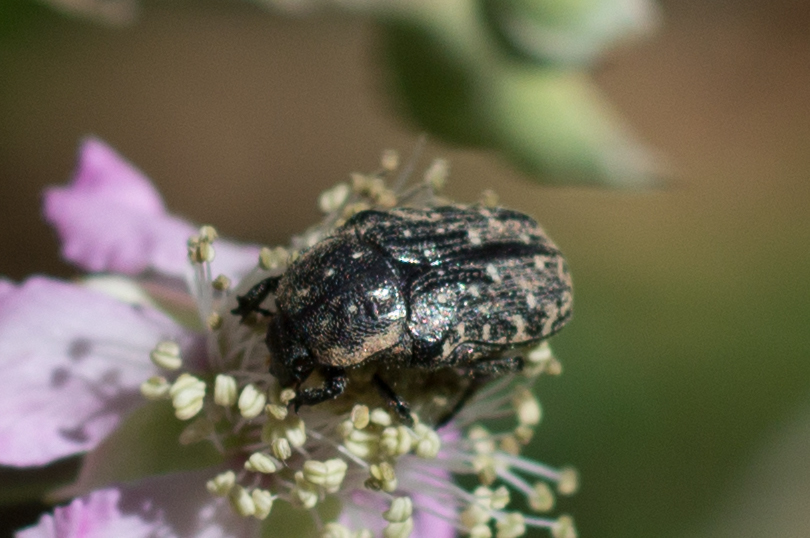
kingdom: Animalia
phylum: Arthropoda
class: Insecta
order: Coleoptera
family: Scarabaeidae
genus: Oxythyrea
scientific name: Oxythyrea funesta
